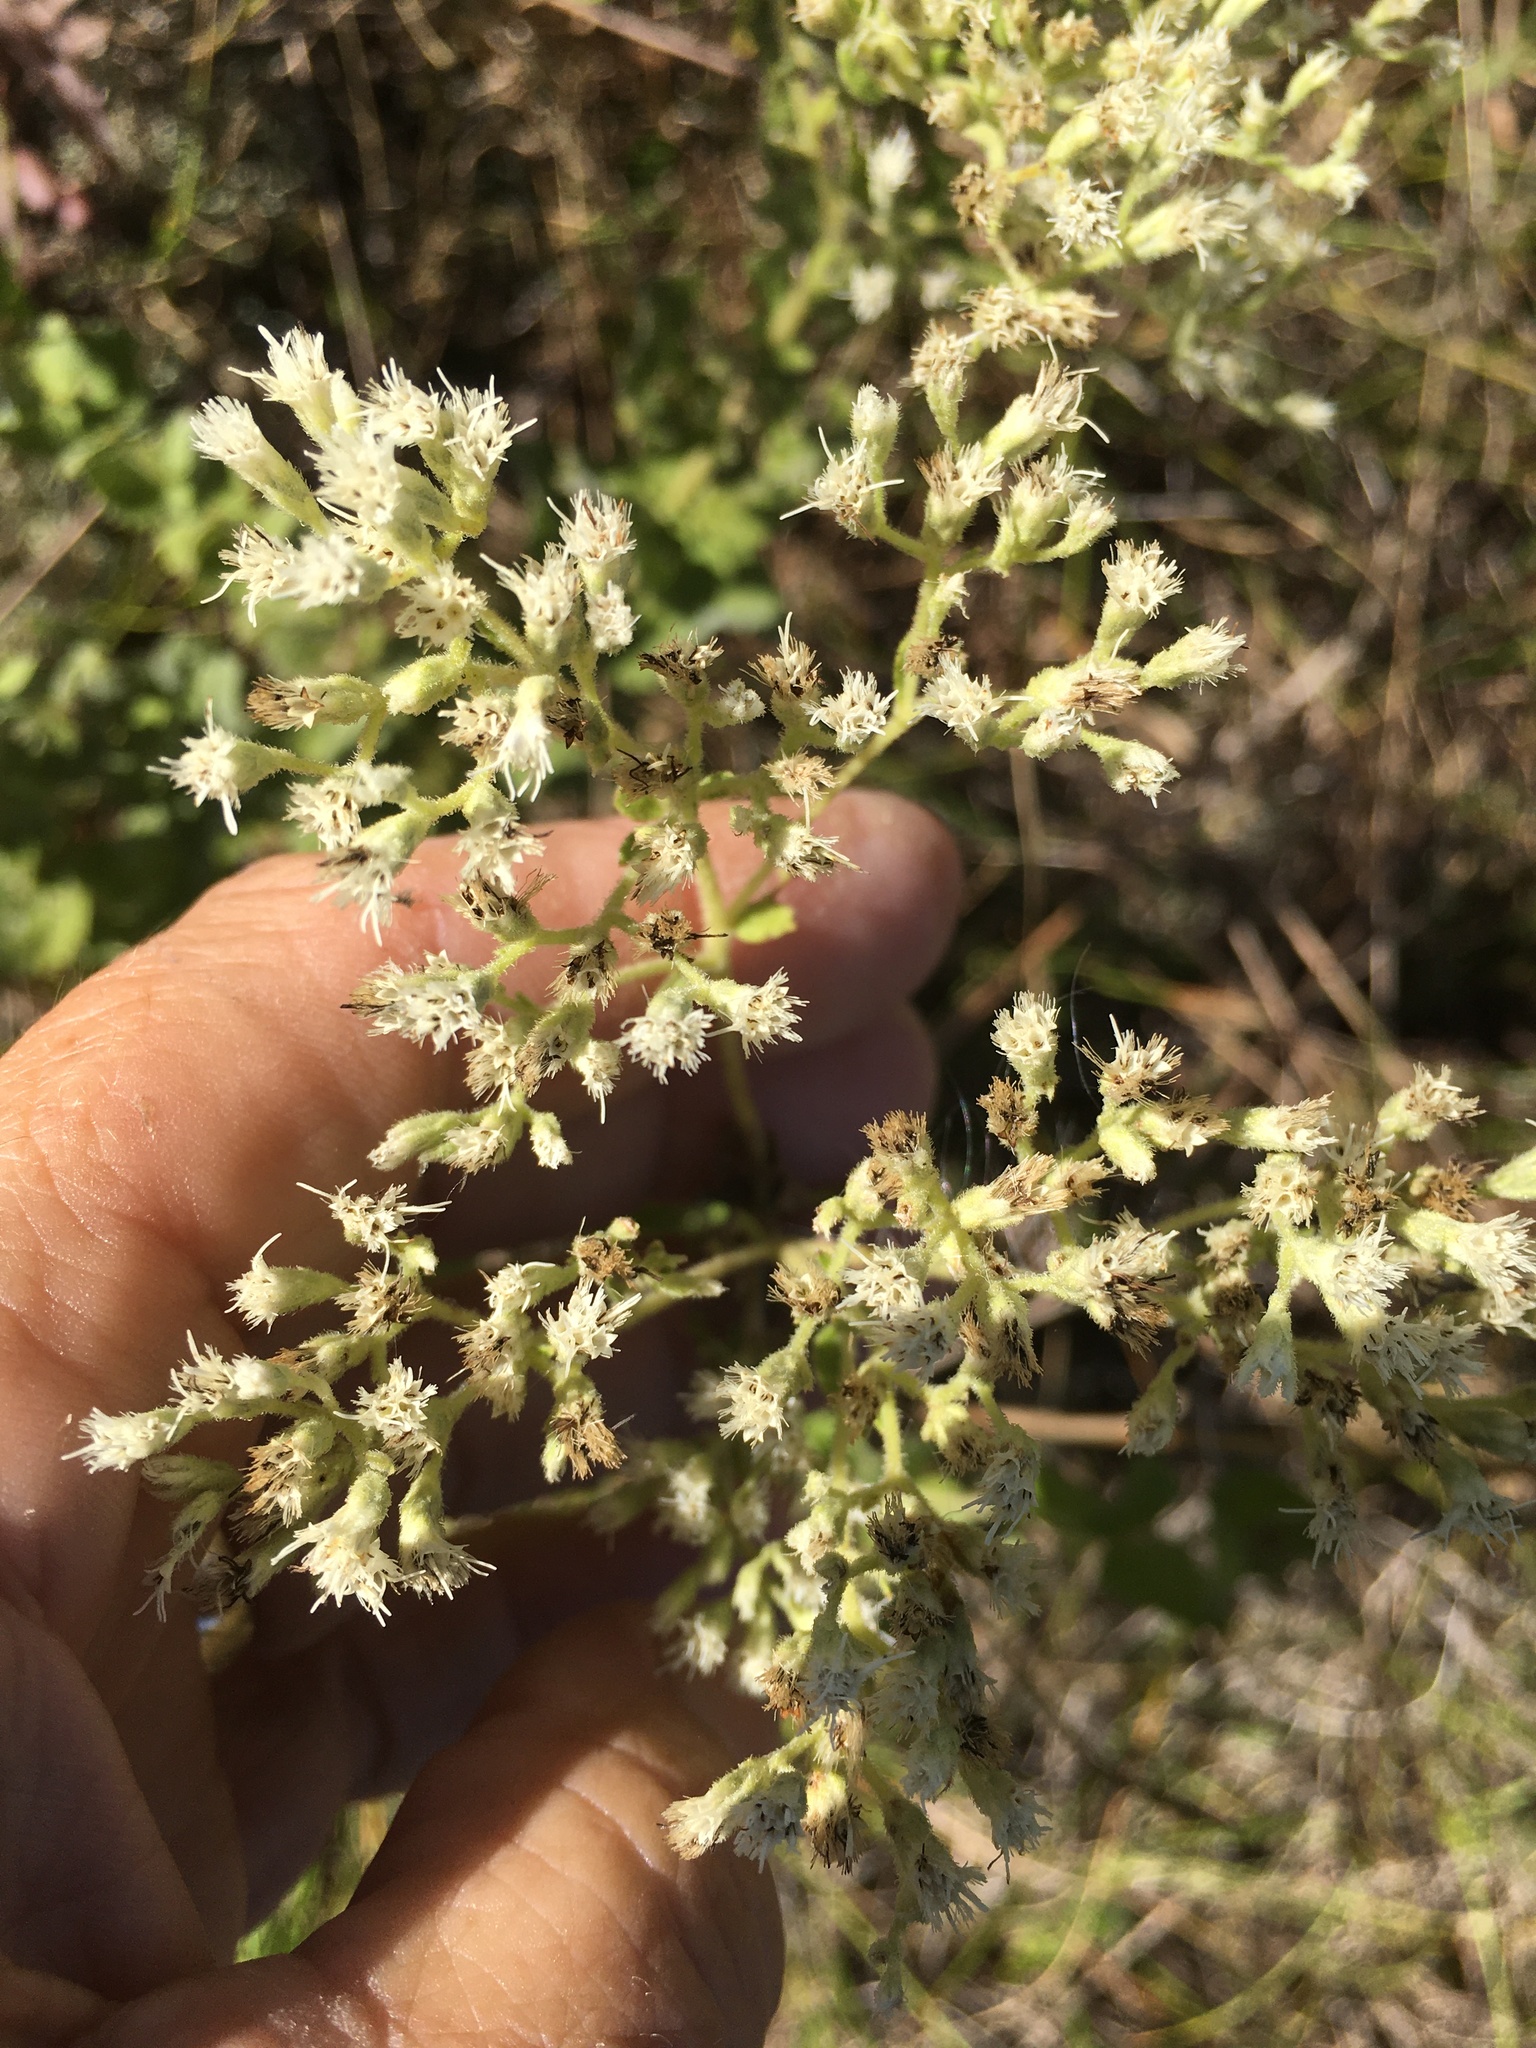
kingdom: Plantae
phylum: Tracheophyta
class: Magnoliopsida
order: Asterales
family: Asteraceae
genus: Eupatorium
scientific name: Eupatorium rotundifolium
